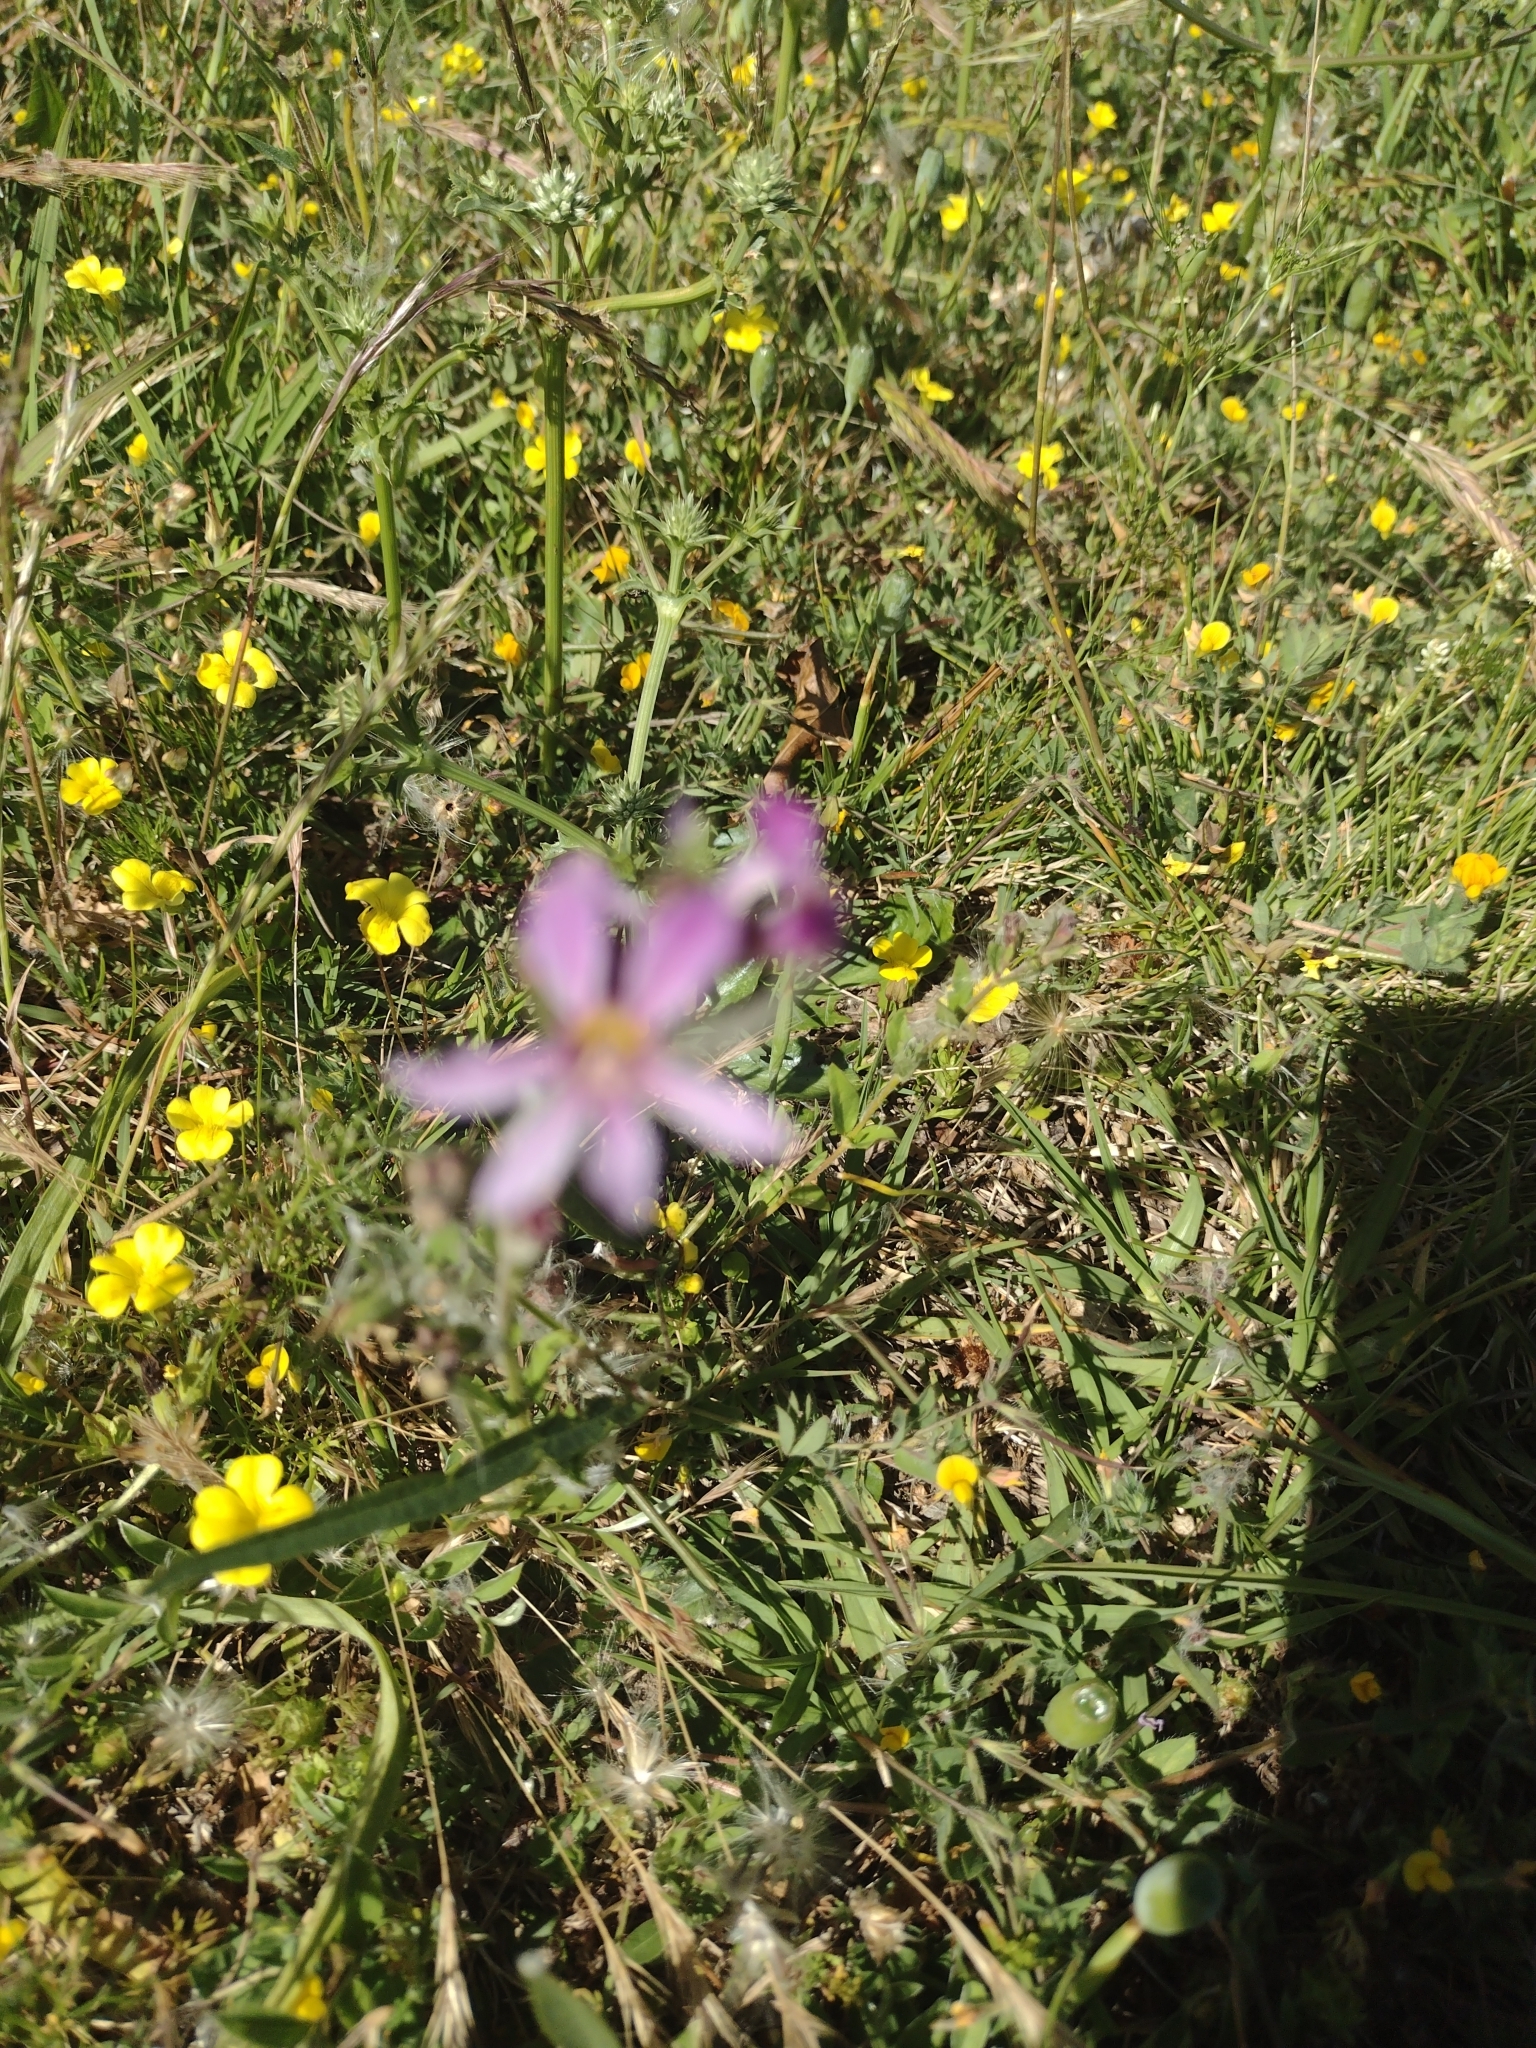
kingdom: Plantae
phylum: Tracheophyta
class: Magnoliopsida
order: Myrtales
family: Lythraceae
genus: Cuphea
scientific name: Cuphea glutinosa
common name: Sticky waxweed
